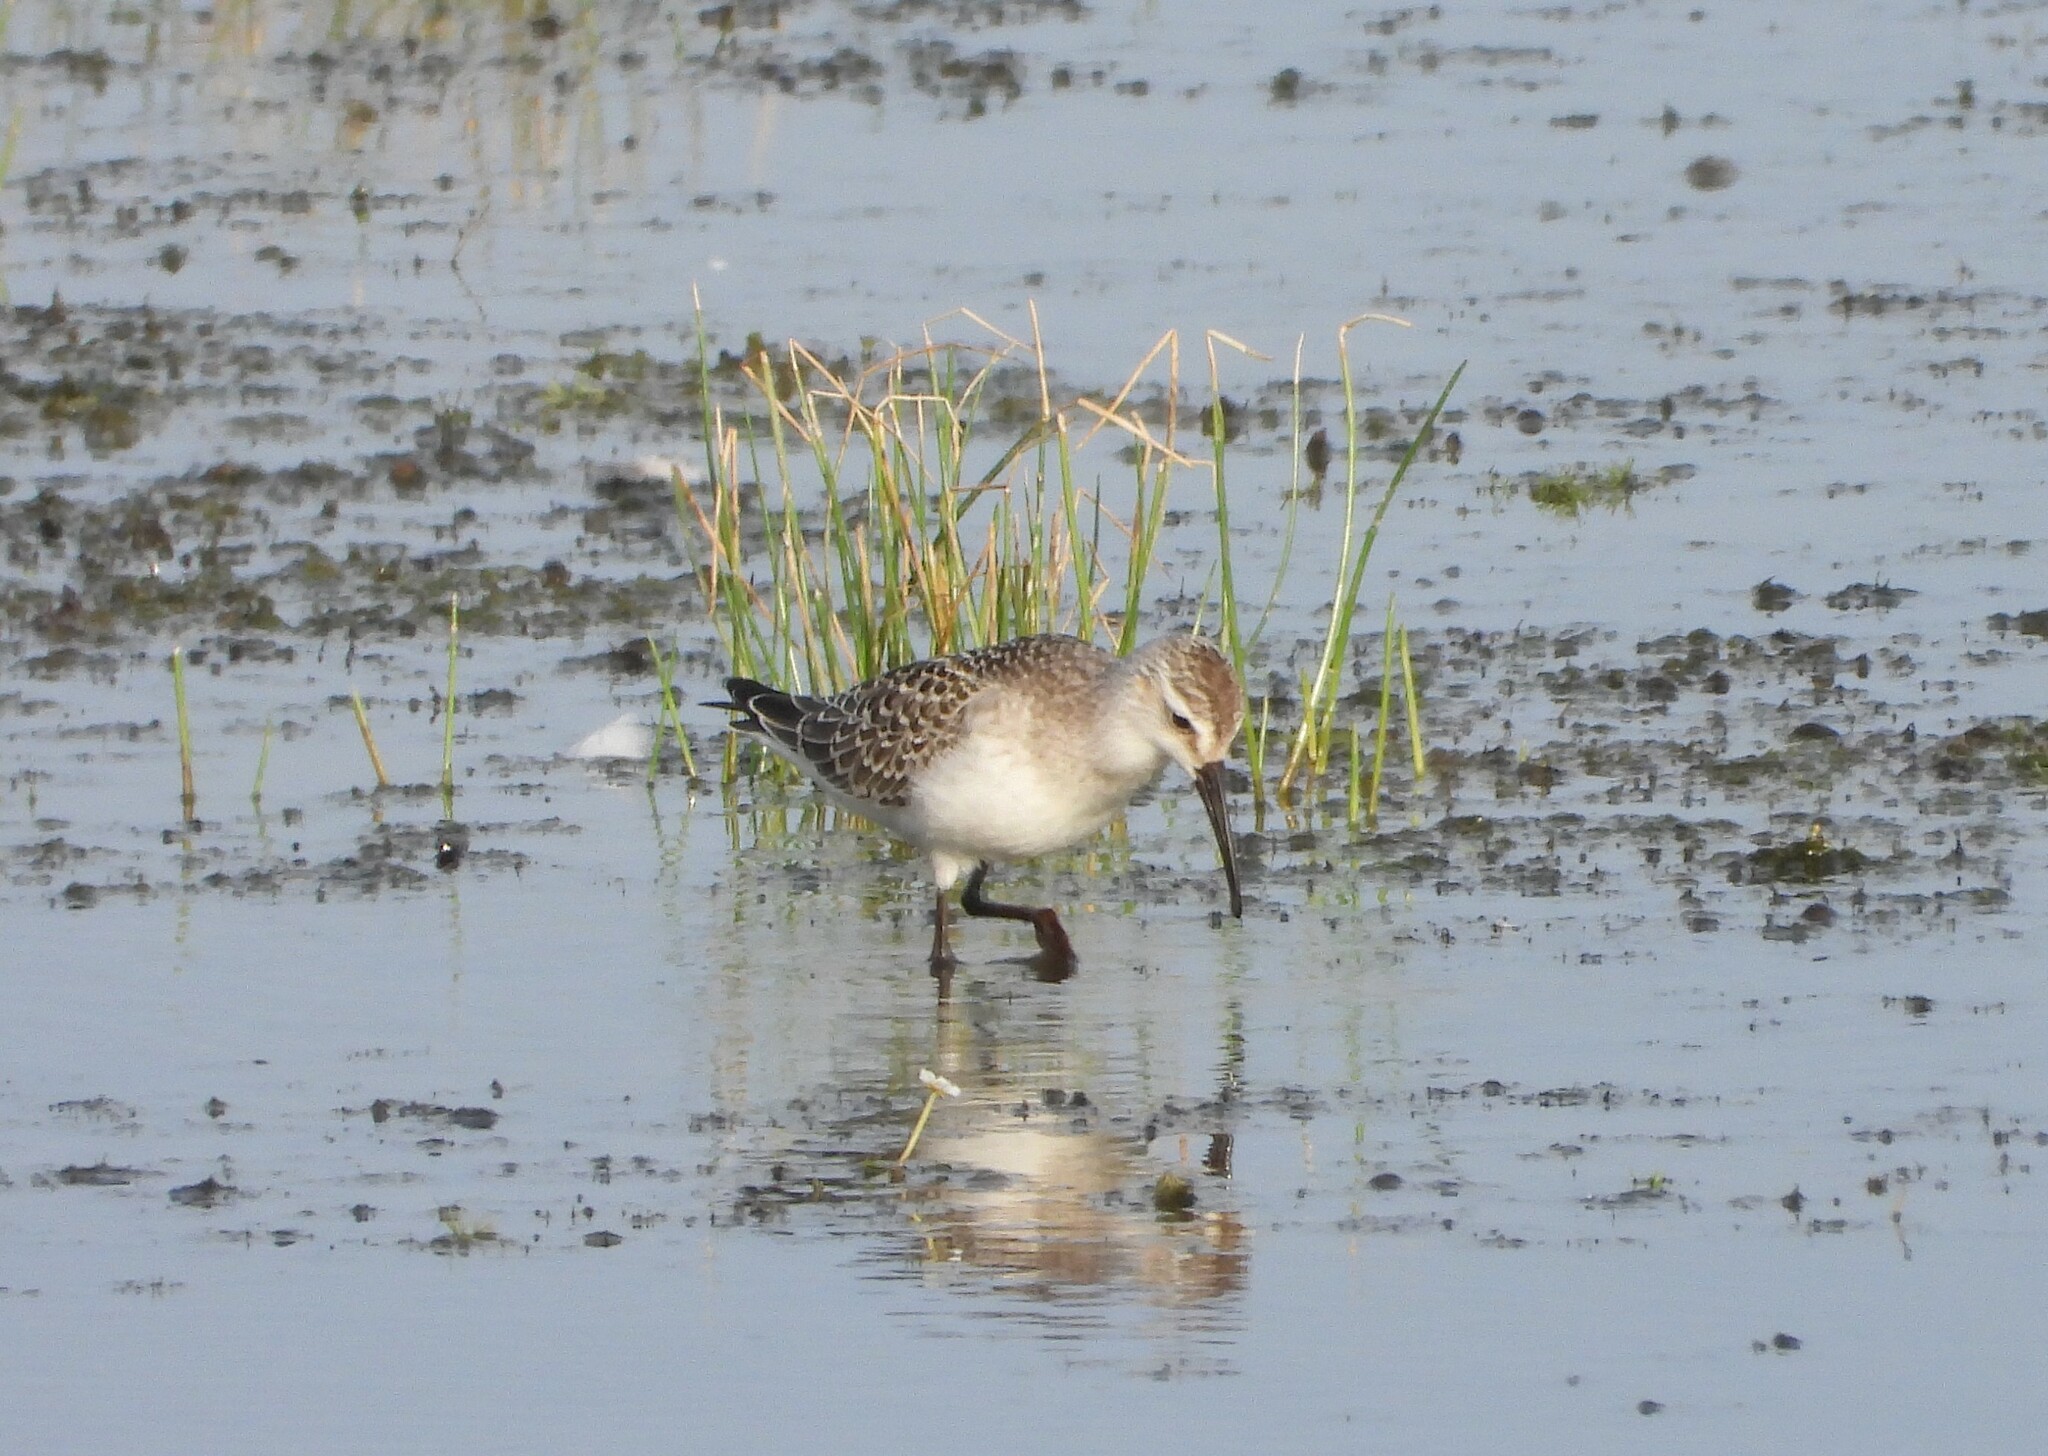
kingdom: Animalia
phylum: Chordata
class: Aves
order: Charadriiformes
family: Scolopacidae
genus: Calidris
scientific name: Calidris ferruginea
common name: Curlew sandpiper
